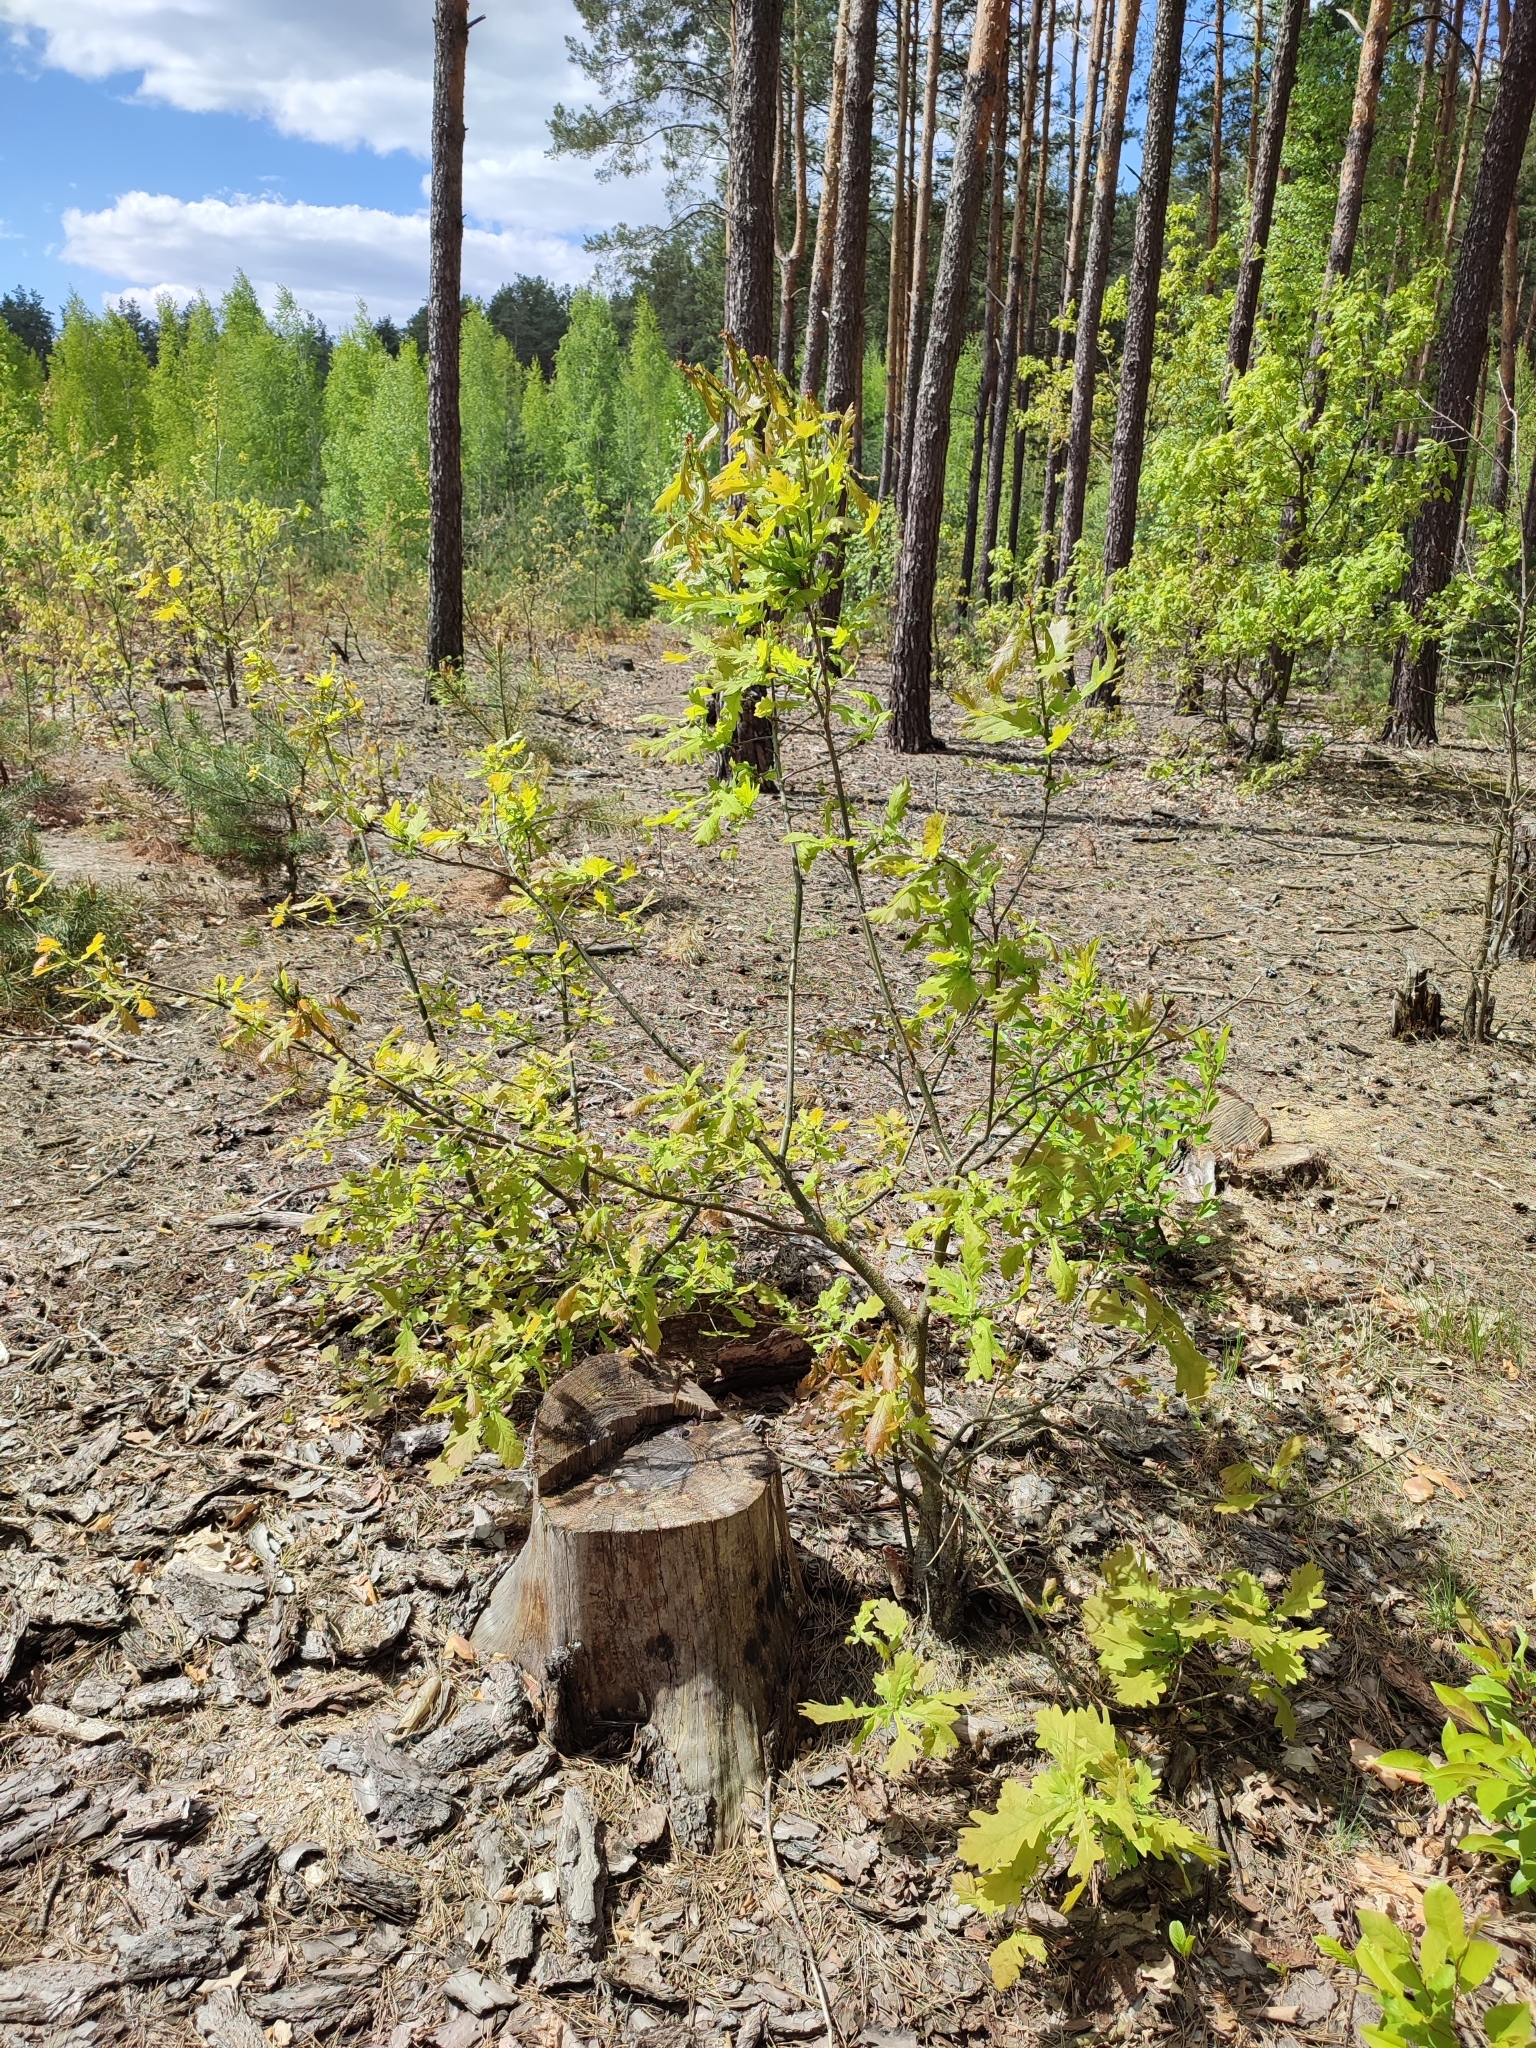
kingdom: Plantae
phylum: Tracheophyta
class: Magnoliopsida
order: Fagales
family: Fagaceae
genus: Quercus
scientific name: Quercus robur
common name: Pedunculate oak
